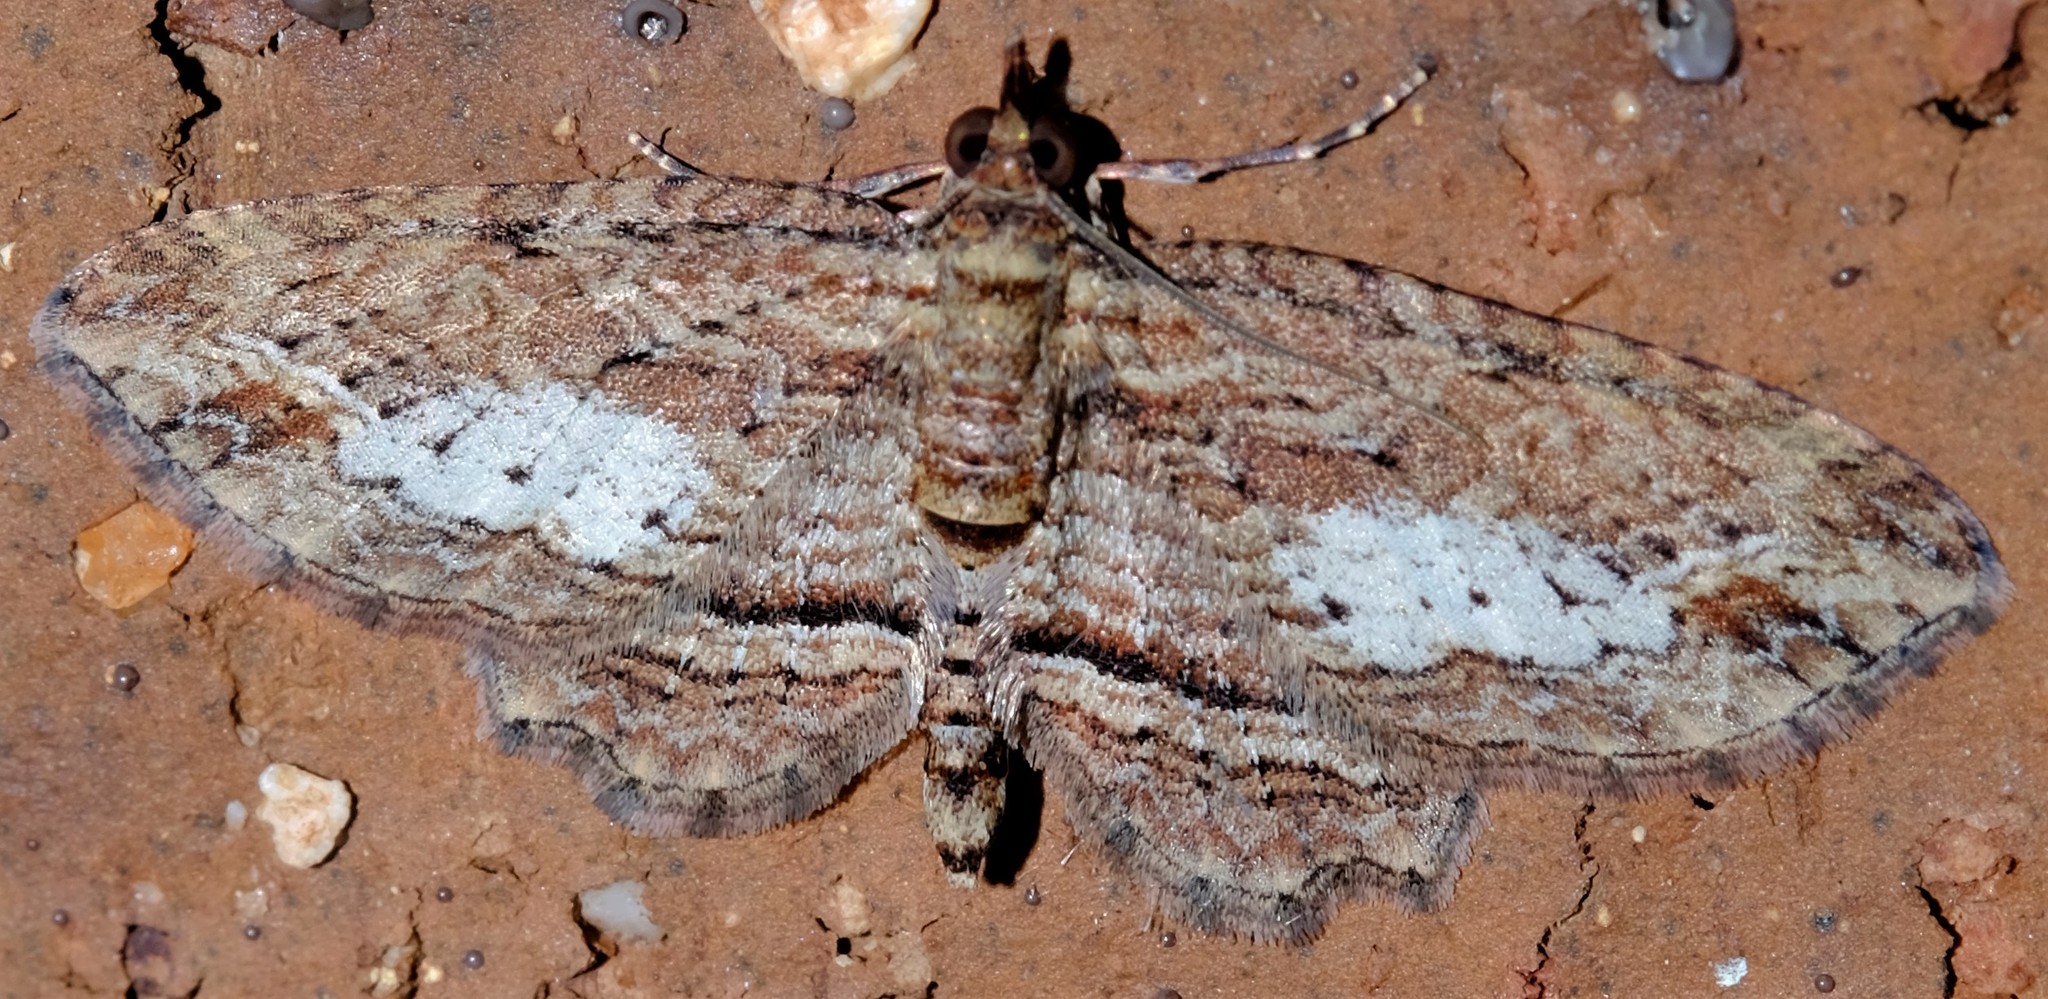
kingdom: Animalia
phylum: Arthropoda
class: Insecta
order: Lepidoptera
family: Geometridae
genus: Chloroclystis
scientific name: Chloroclystis filata
